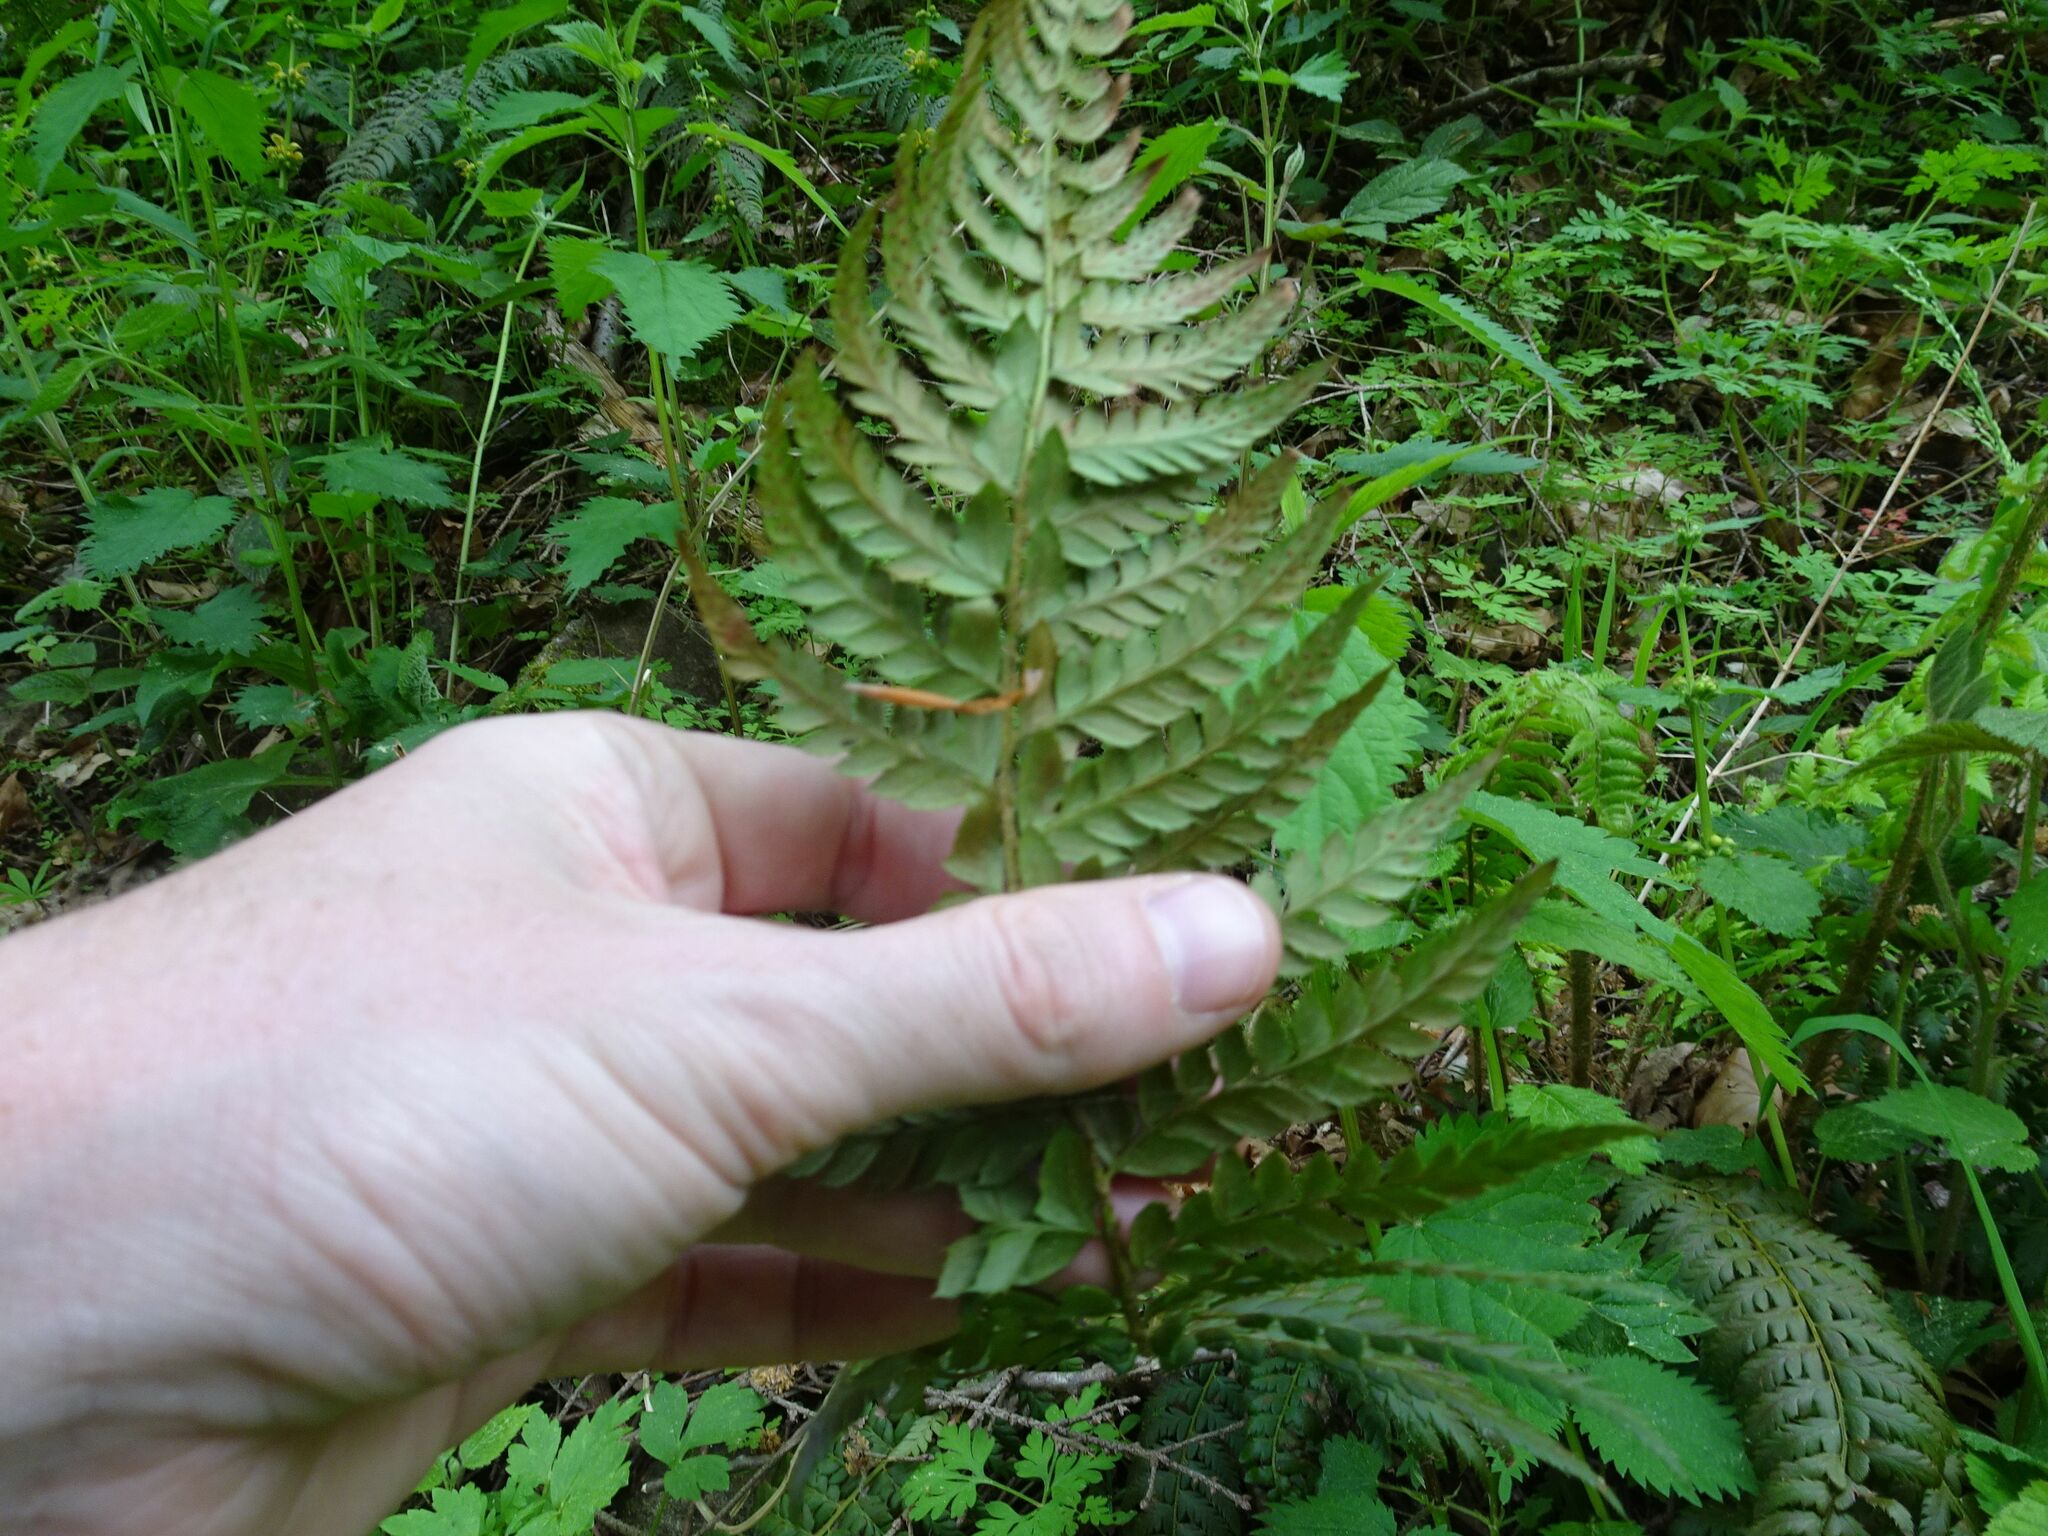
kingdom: Plantae
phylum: Tracheophyta
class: Polypodiopsida
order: Polypodiales
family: Dryopteridaceae
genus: Polystichum
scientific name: Polystichum aculeatum
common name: Hard shield-fern
